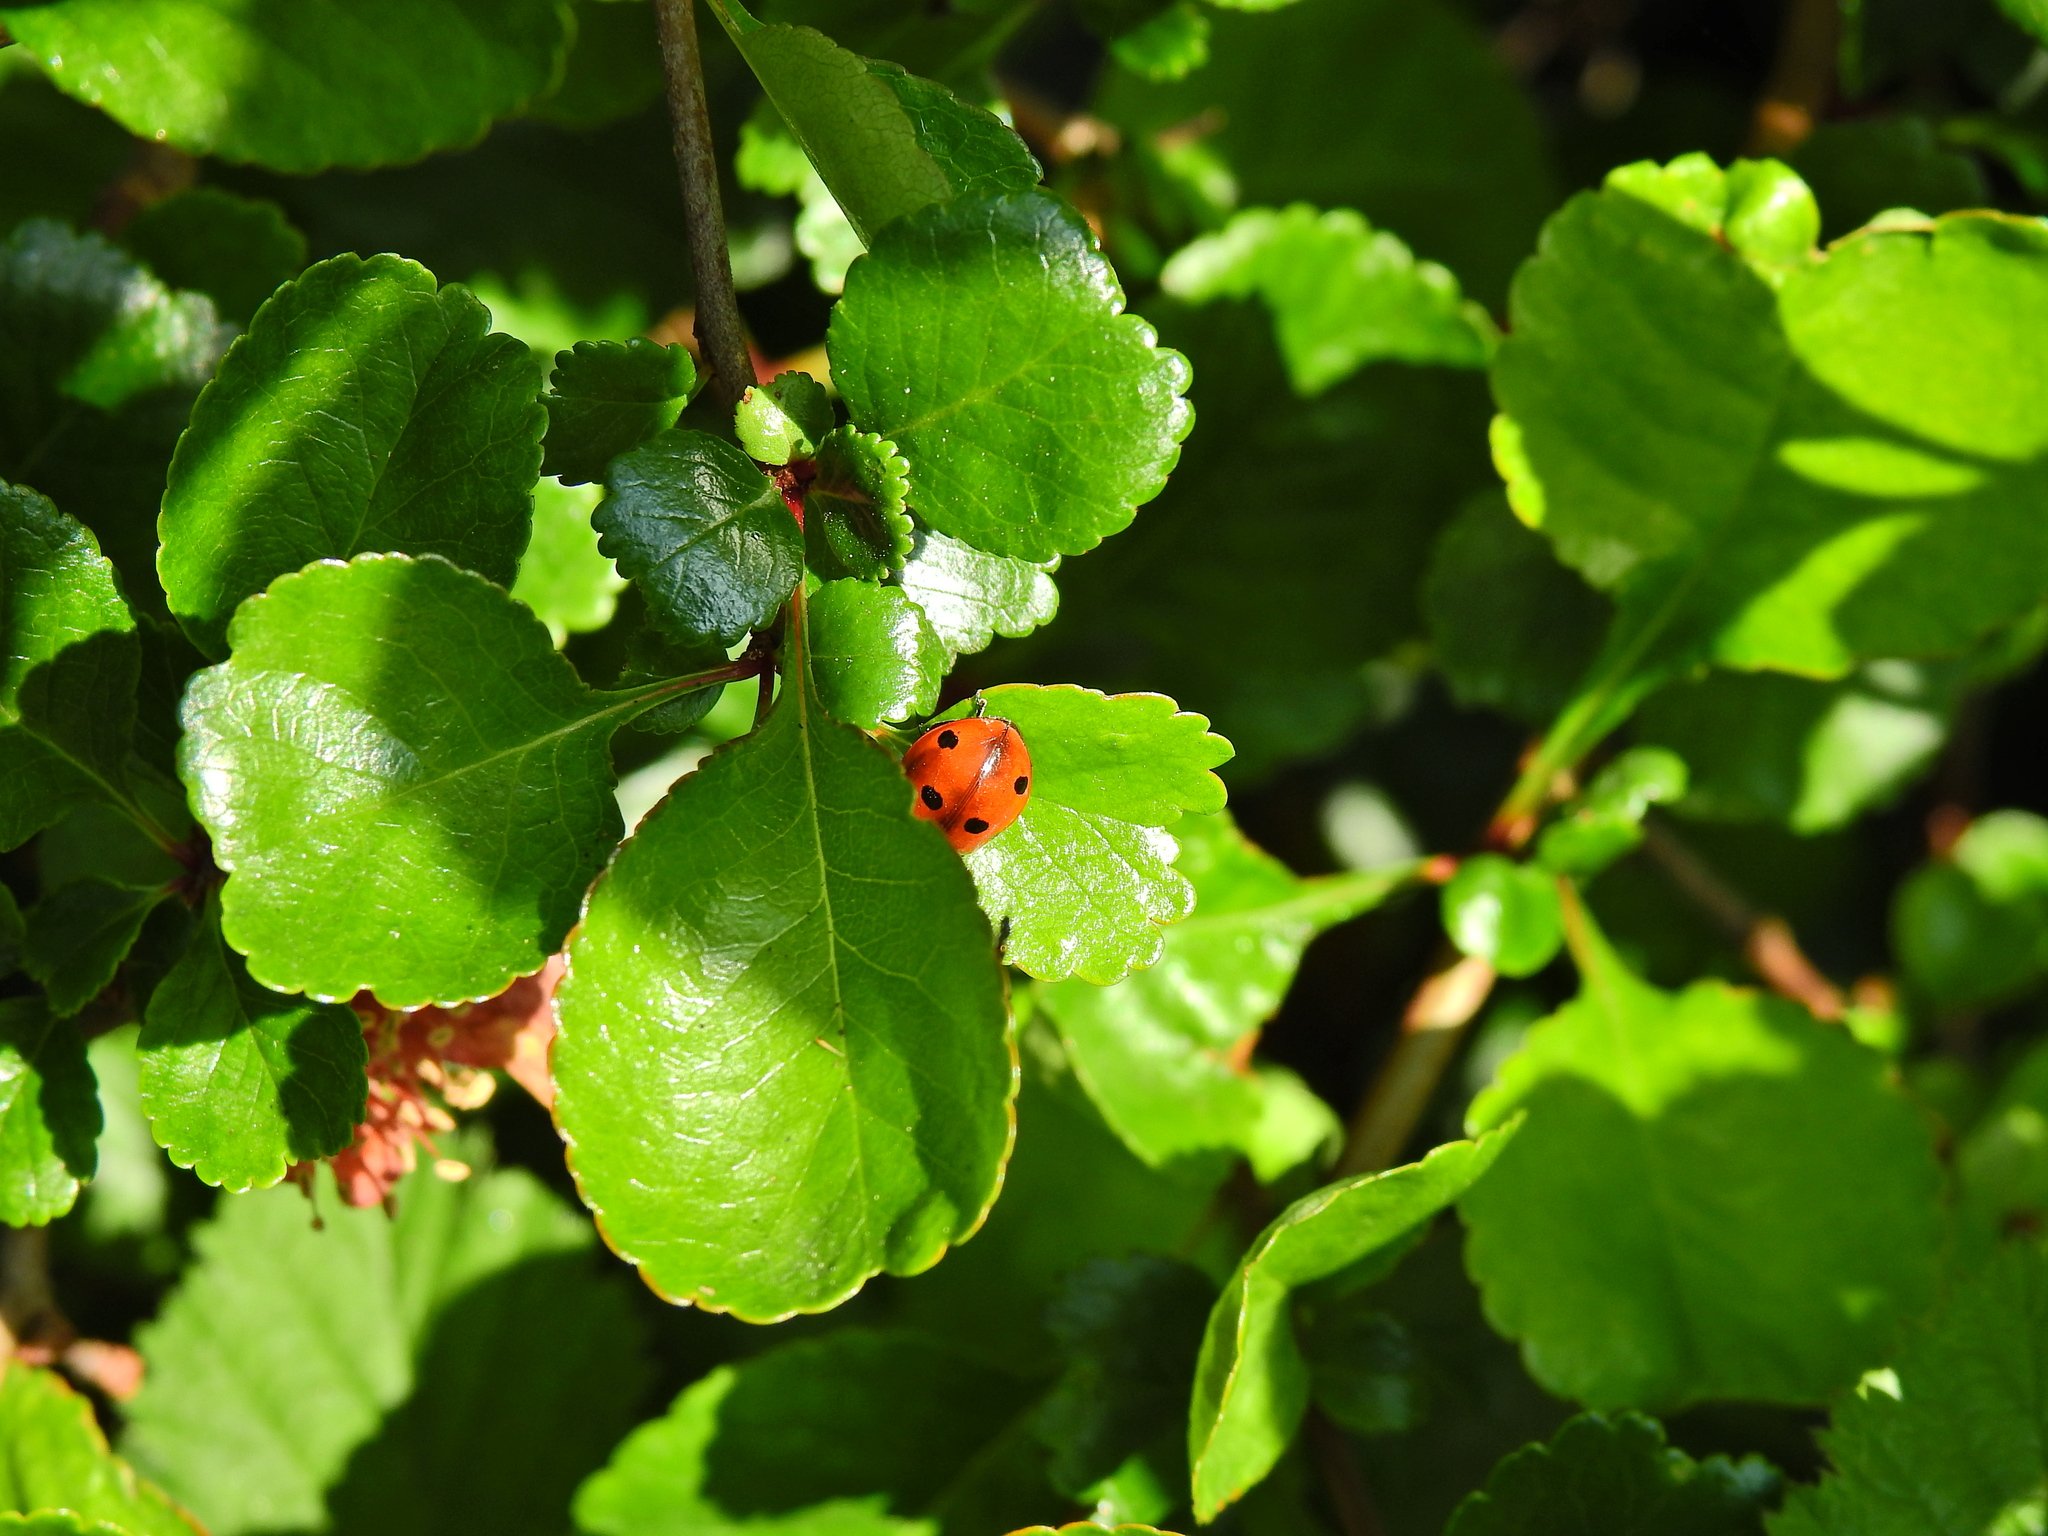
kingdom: Animalia
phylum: Arthropoda
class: Insecta
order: Coleoptera
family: Coccinellidae
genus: Coccinella
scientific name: Coccinella septempunctata
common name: Sevenspotted lady beetle
